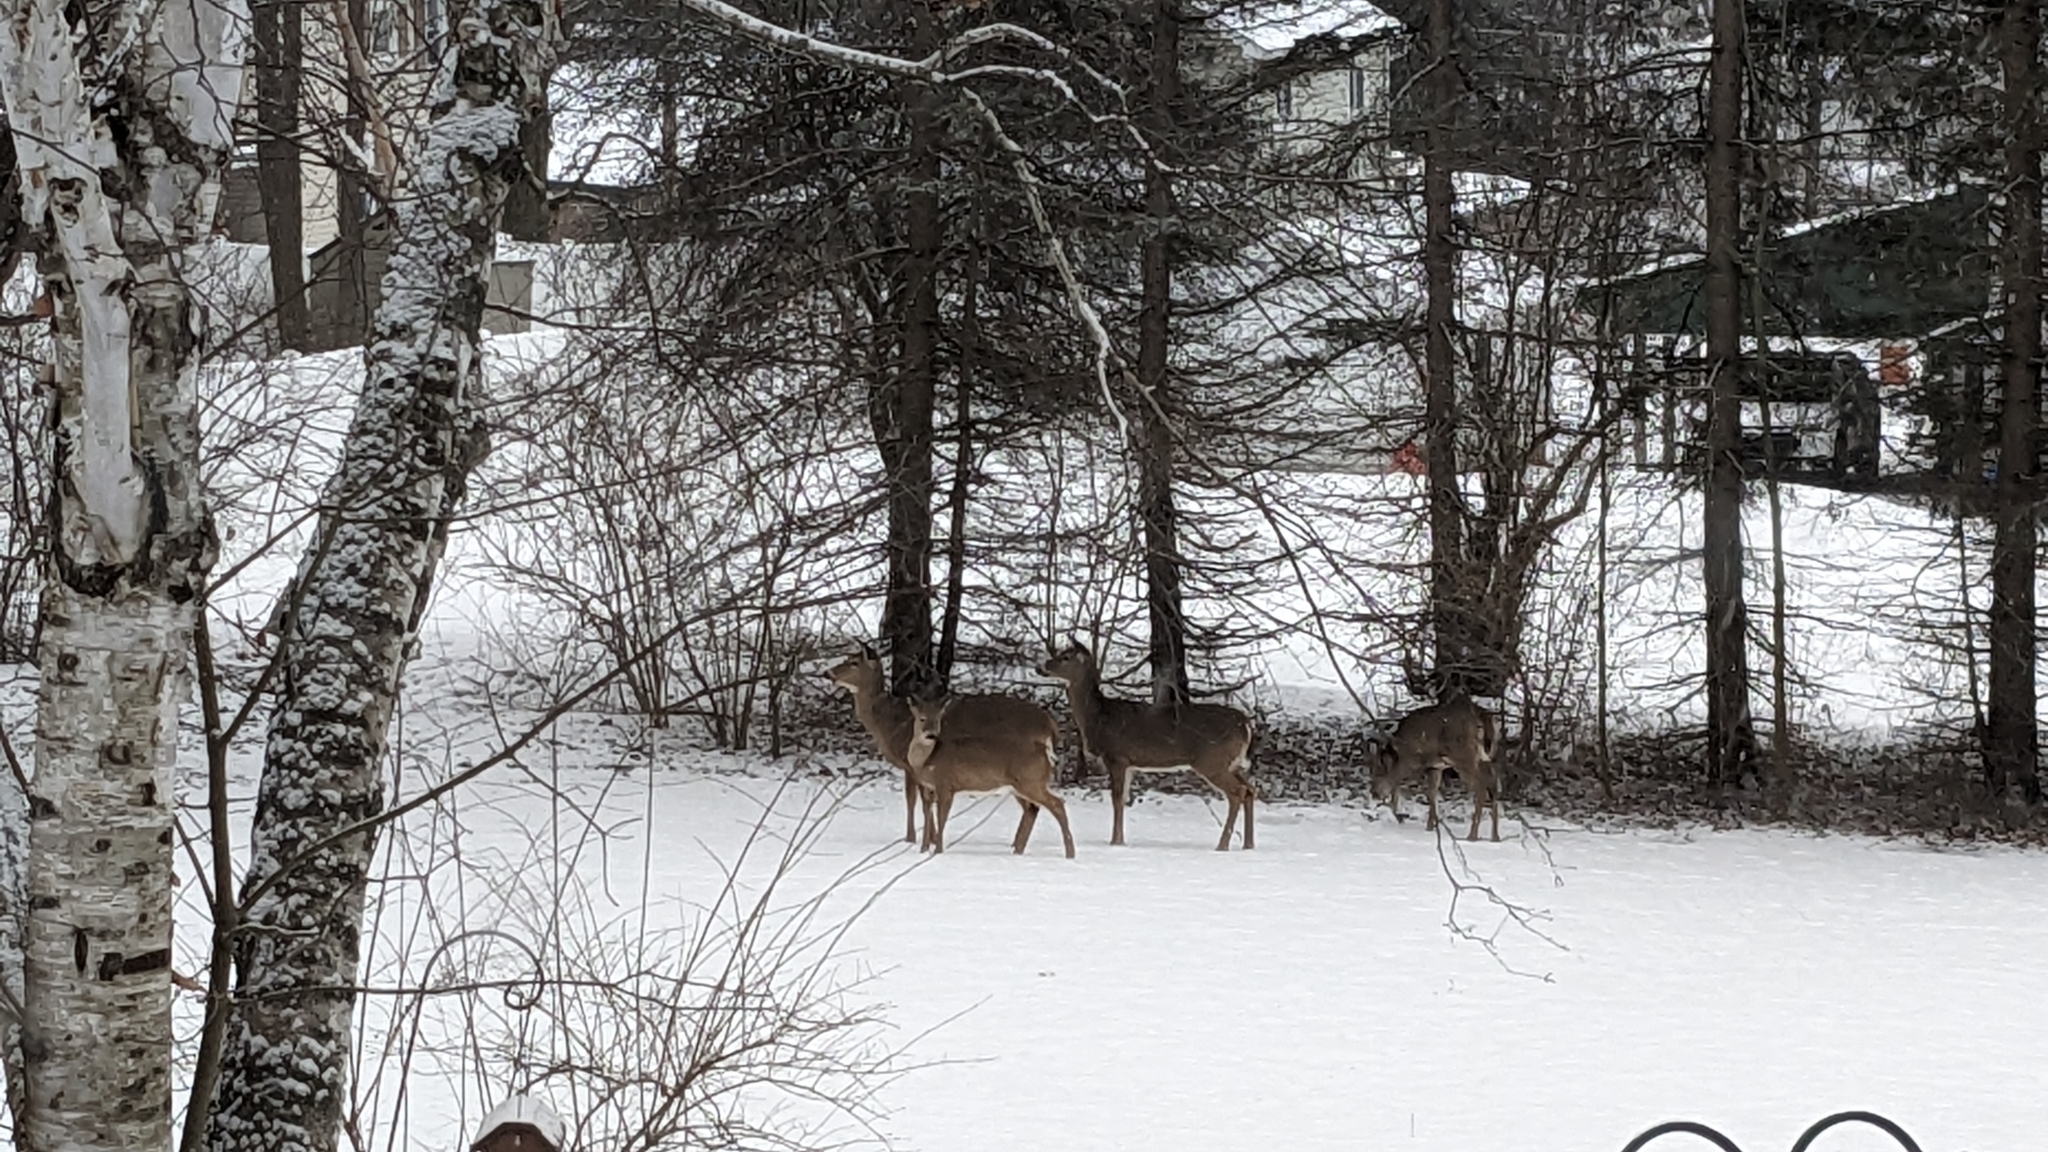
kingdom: Animalia
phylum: Chordata
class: Mammalia
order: Artiodactyla
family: Cervidae
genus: Odocoileus
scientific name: Odocoileus virginianus
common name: White-tailed deer
